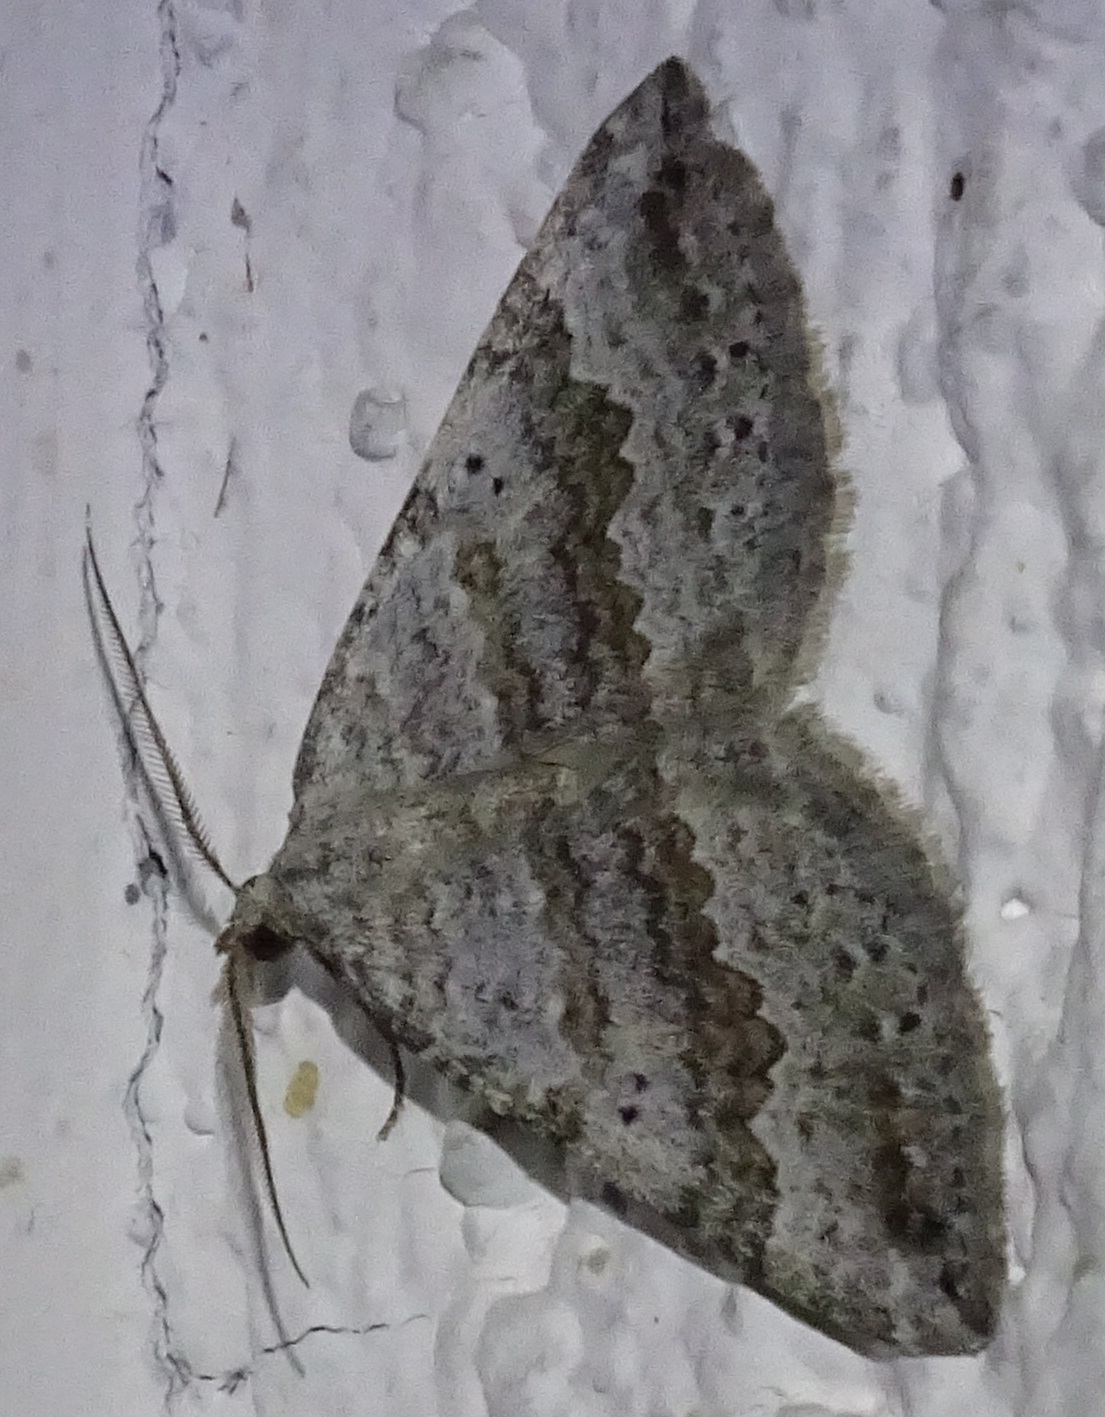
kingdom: Animalia
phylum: Arthropoda
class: Insecta
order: Lepidoptera
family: Geometridae
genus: Scotopteryx
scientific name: Scotopteryx bipunctaria
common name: Chalk carpet
